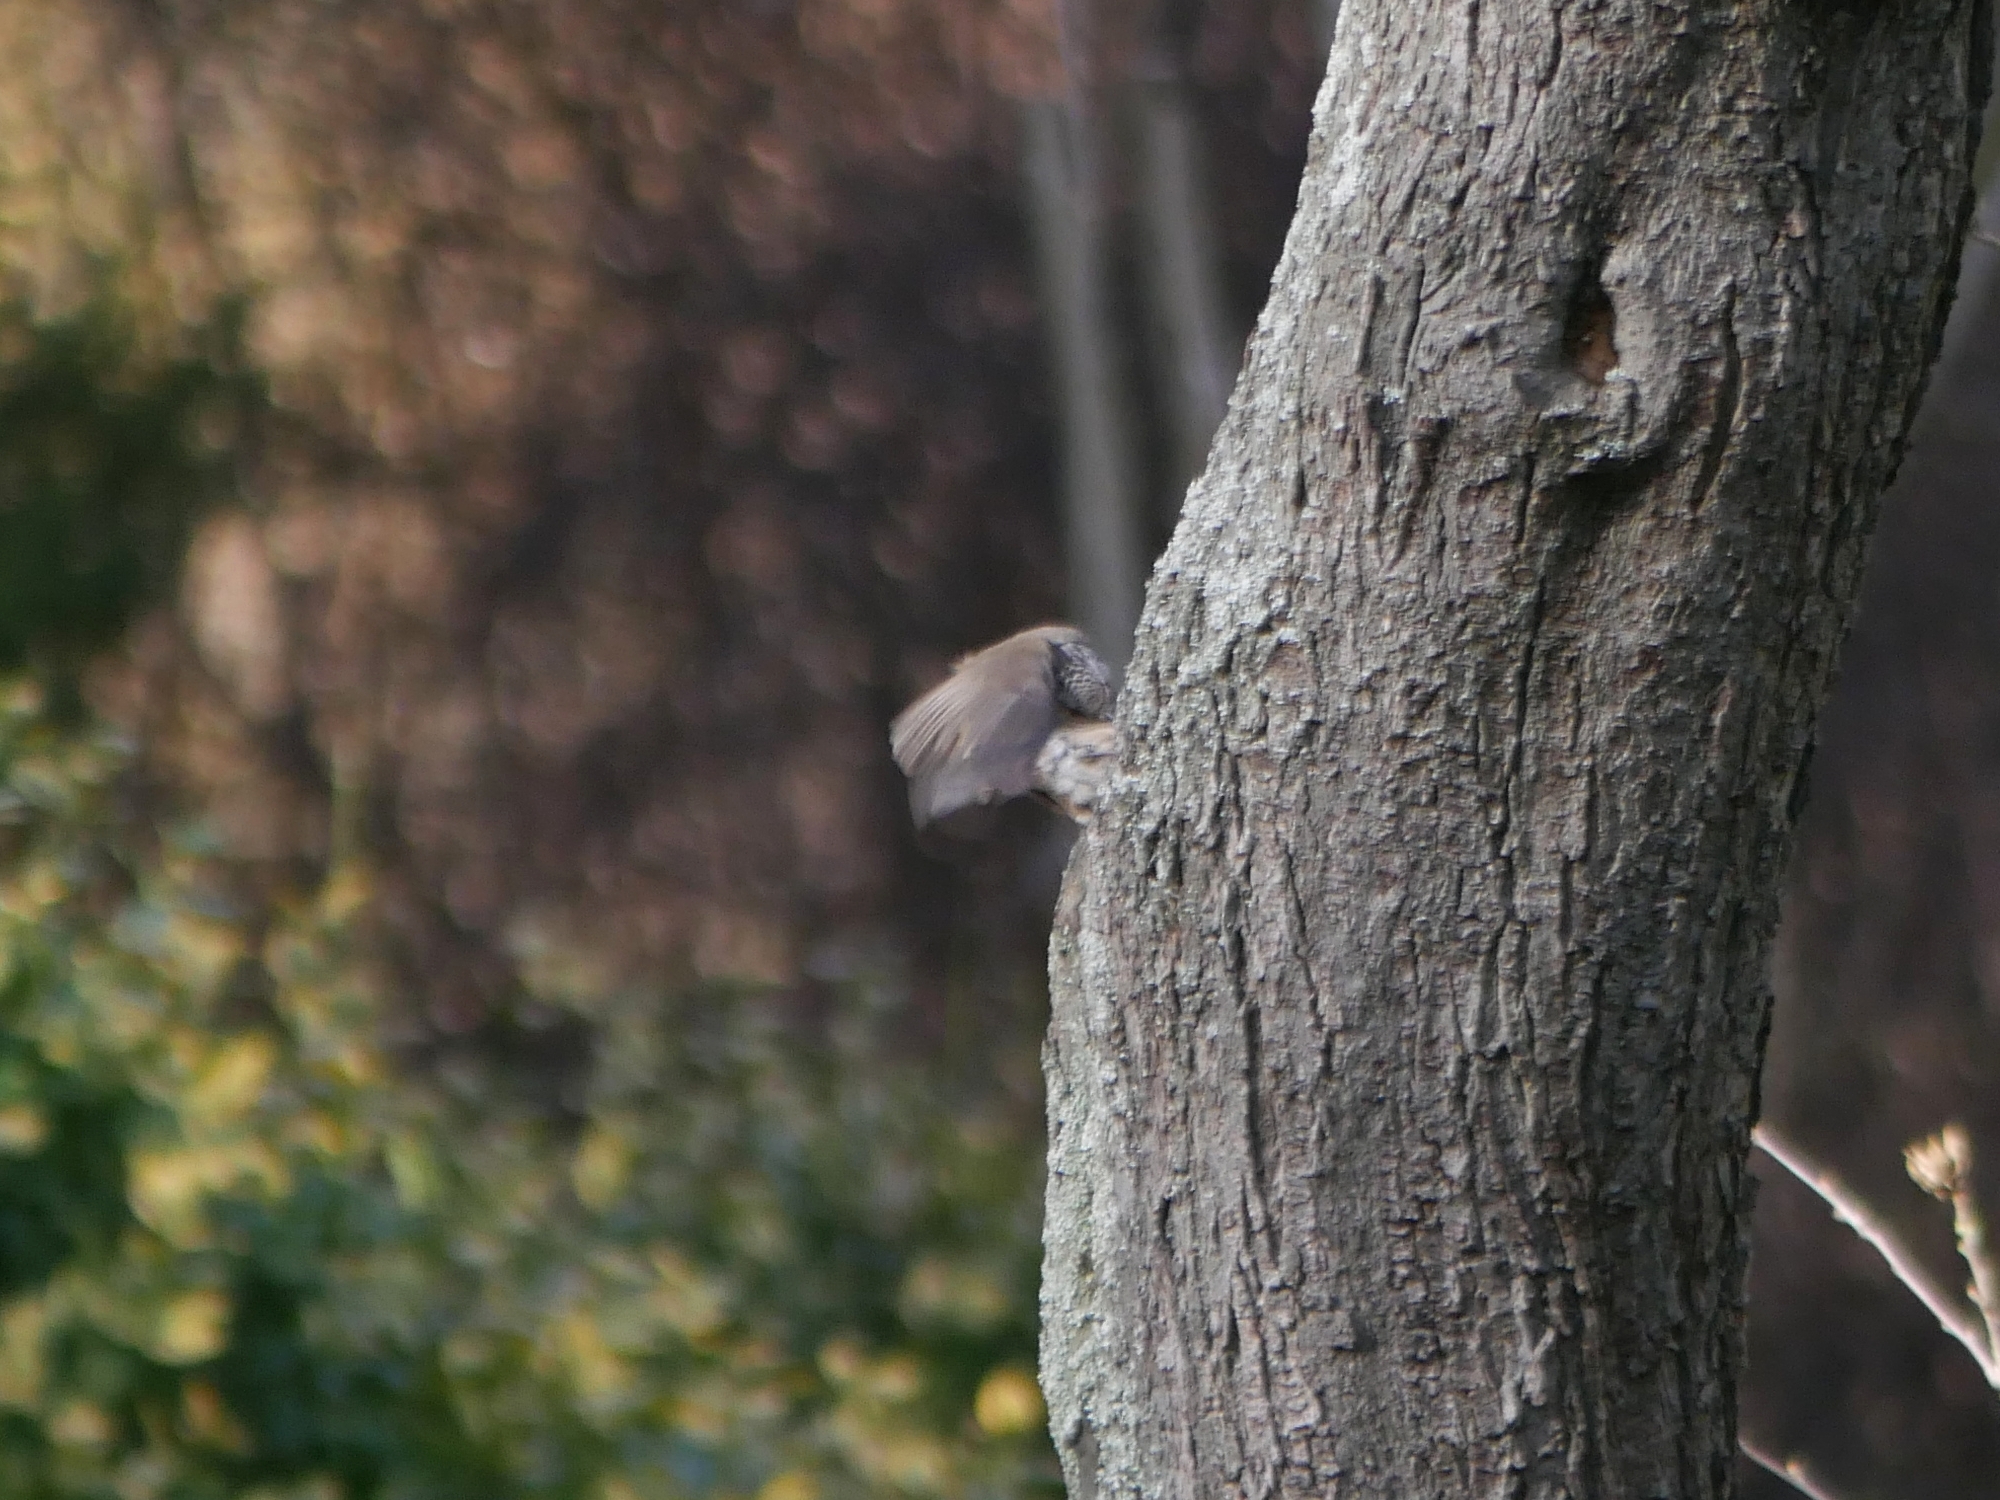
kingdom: Animalia
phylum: Chordata
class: Aves
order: Passeriformes
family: Paridae
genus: Lophophanes
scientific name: Lophophanes cristatus
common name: European crested tit
